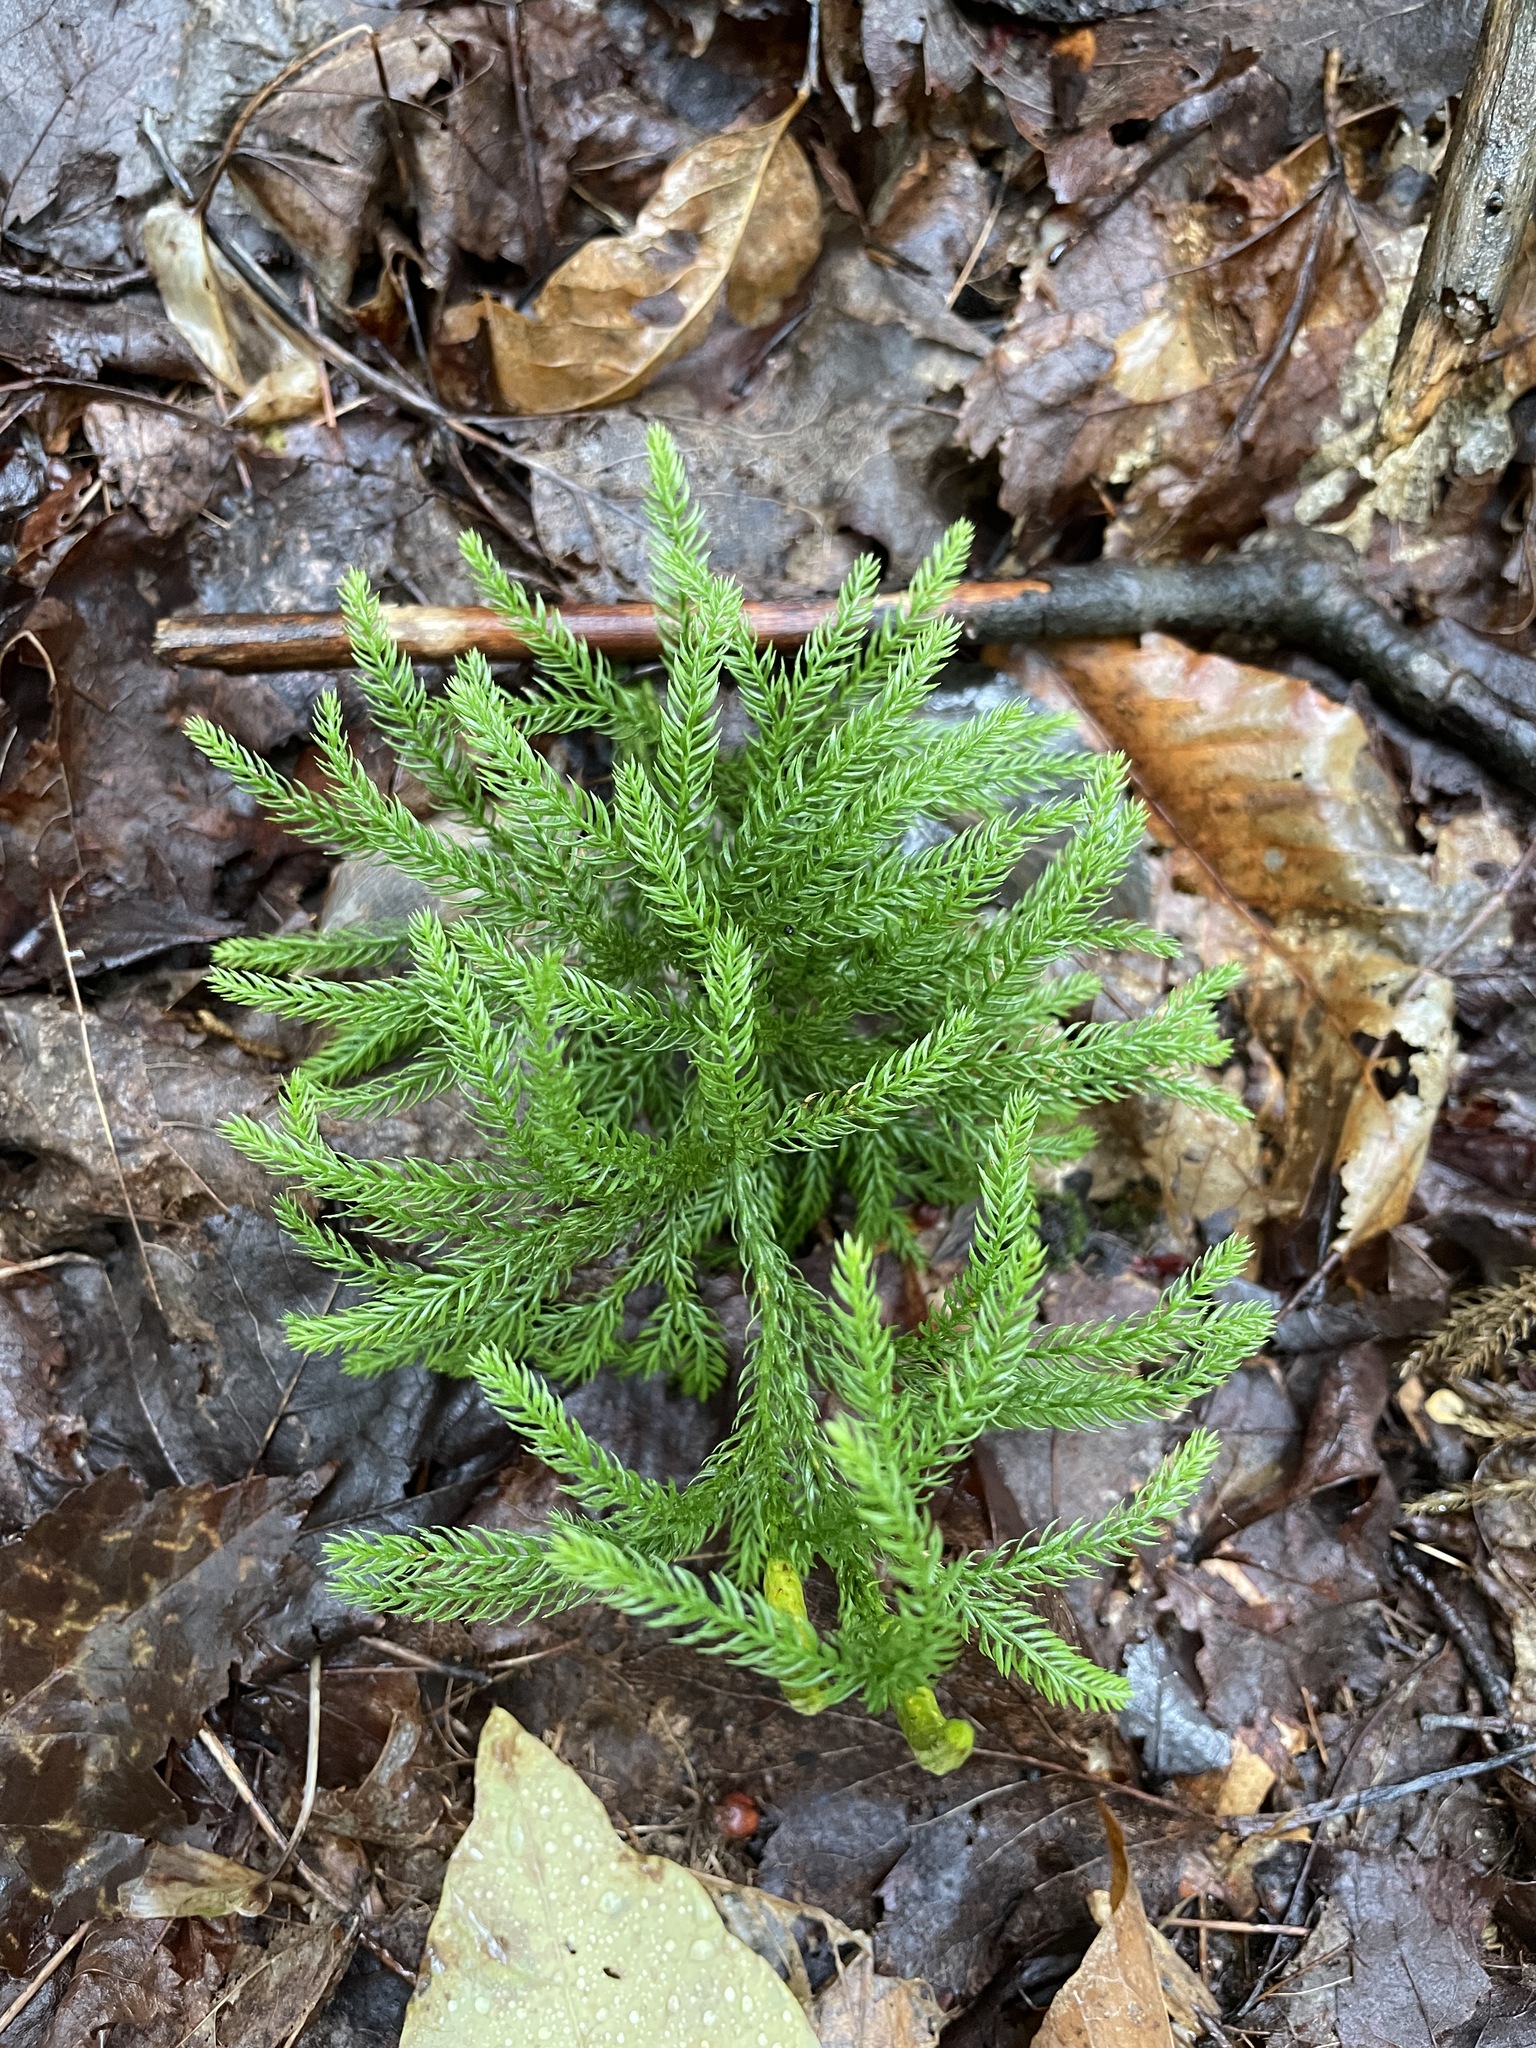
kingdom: Plantae
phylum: Tracheophyta
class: Lycopodiopsida
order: Lycopodiales
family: Lycopodiaceae
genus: Dendrolycopodium
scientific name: Dendrolycopodium hickeyi
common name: Hickey's clubmoss
